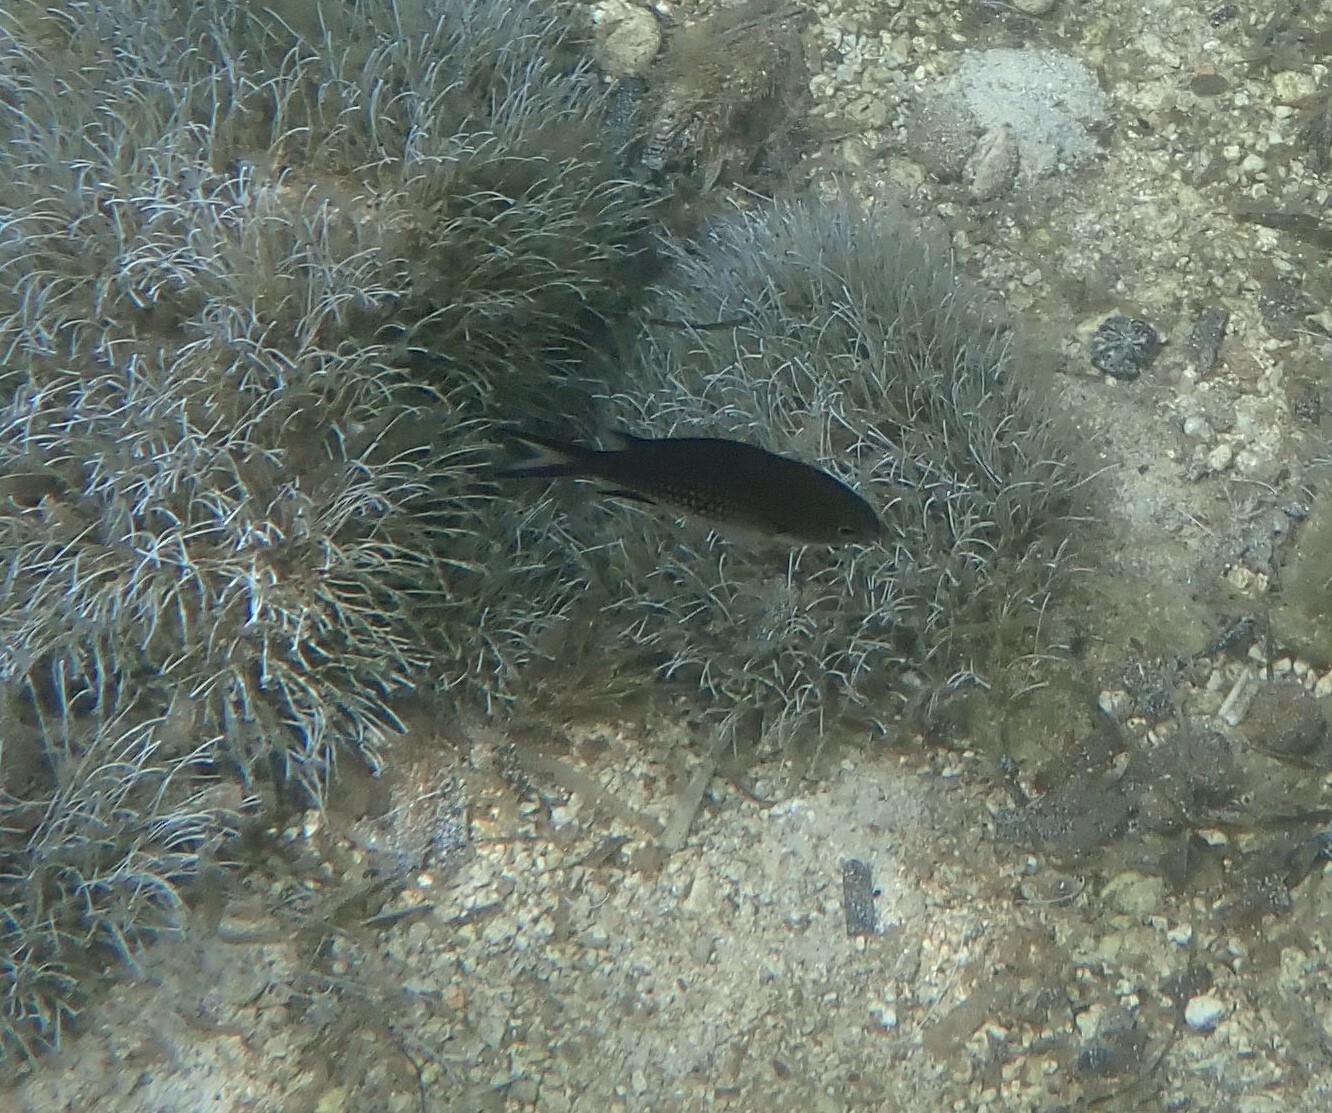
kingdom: Animalia
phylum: Chordata
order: Perciformes
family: Pomacentridae
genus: Chromis
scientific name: Chromis chromis
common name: Damselfish
